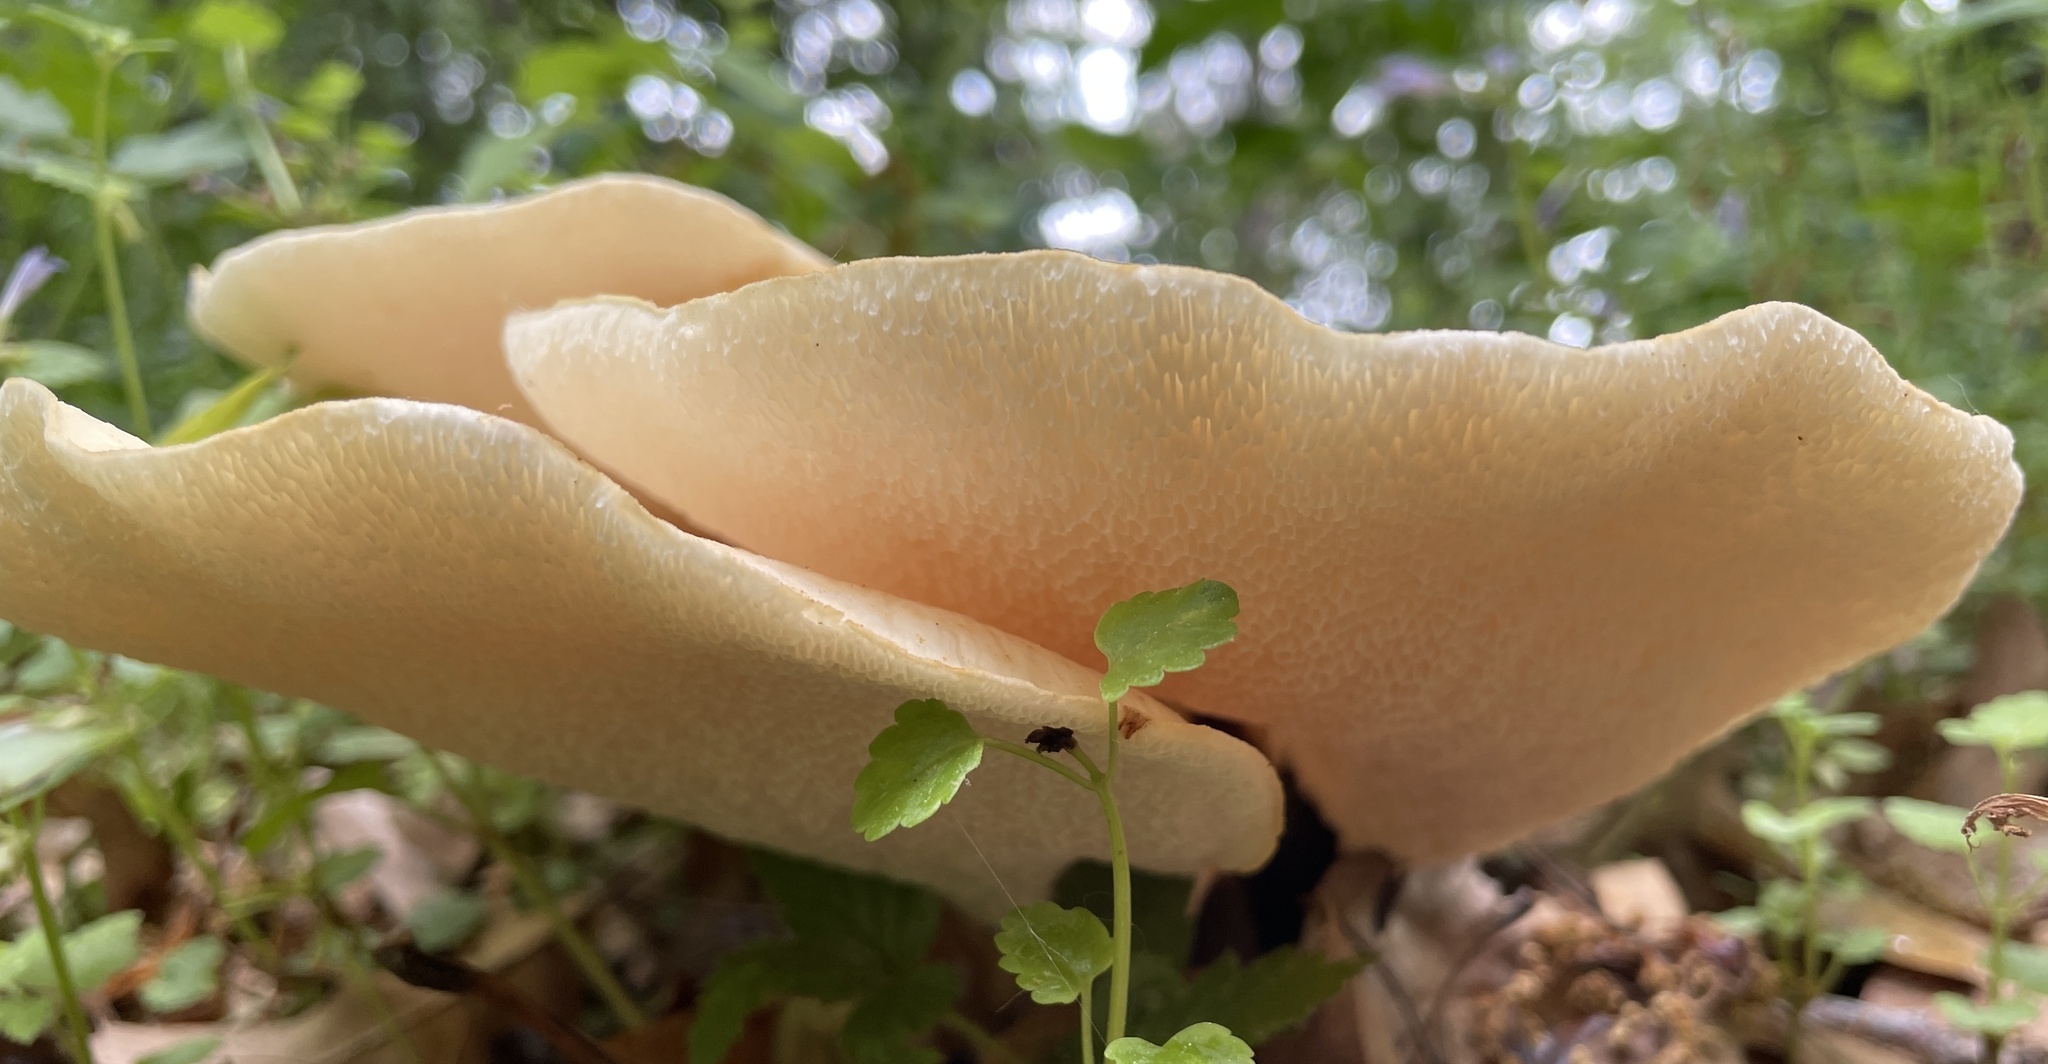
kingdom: Fungi
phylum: Basidiomycota
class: Agaricomycetes
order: Polyporales
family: Polyporaceae
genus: Cerioporus
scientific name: Cerioporus squamosus
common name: Dryad's saddle
